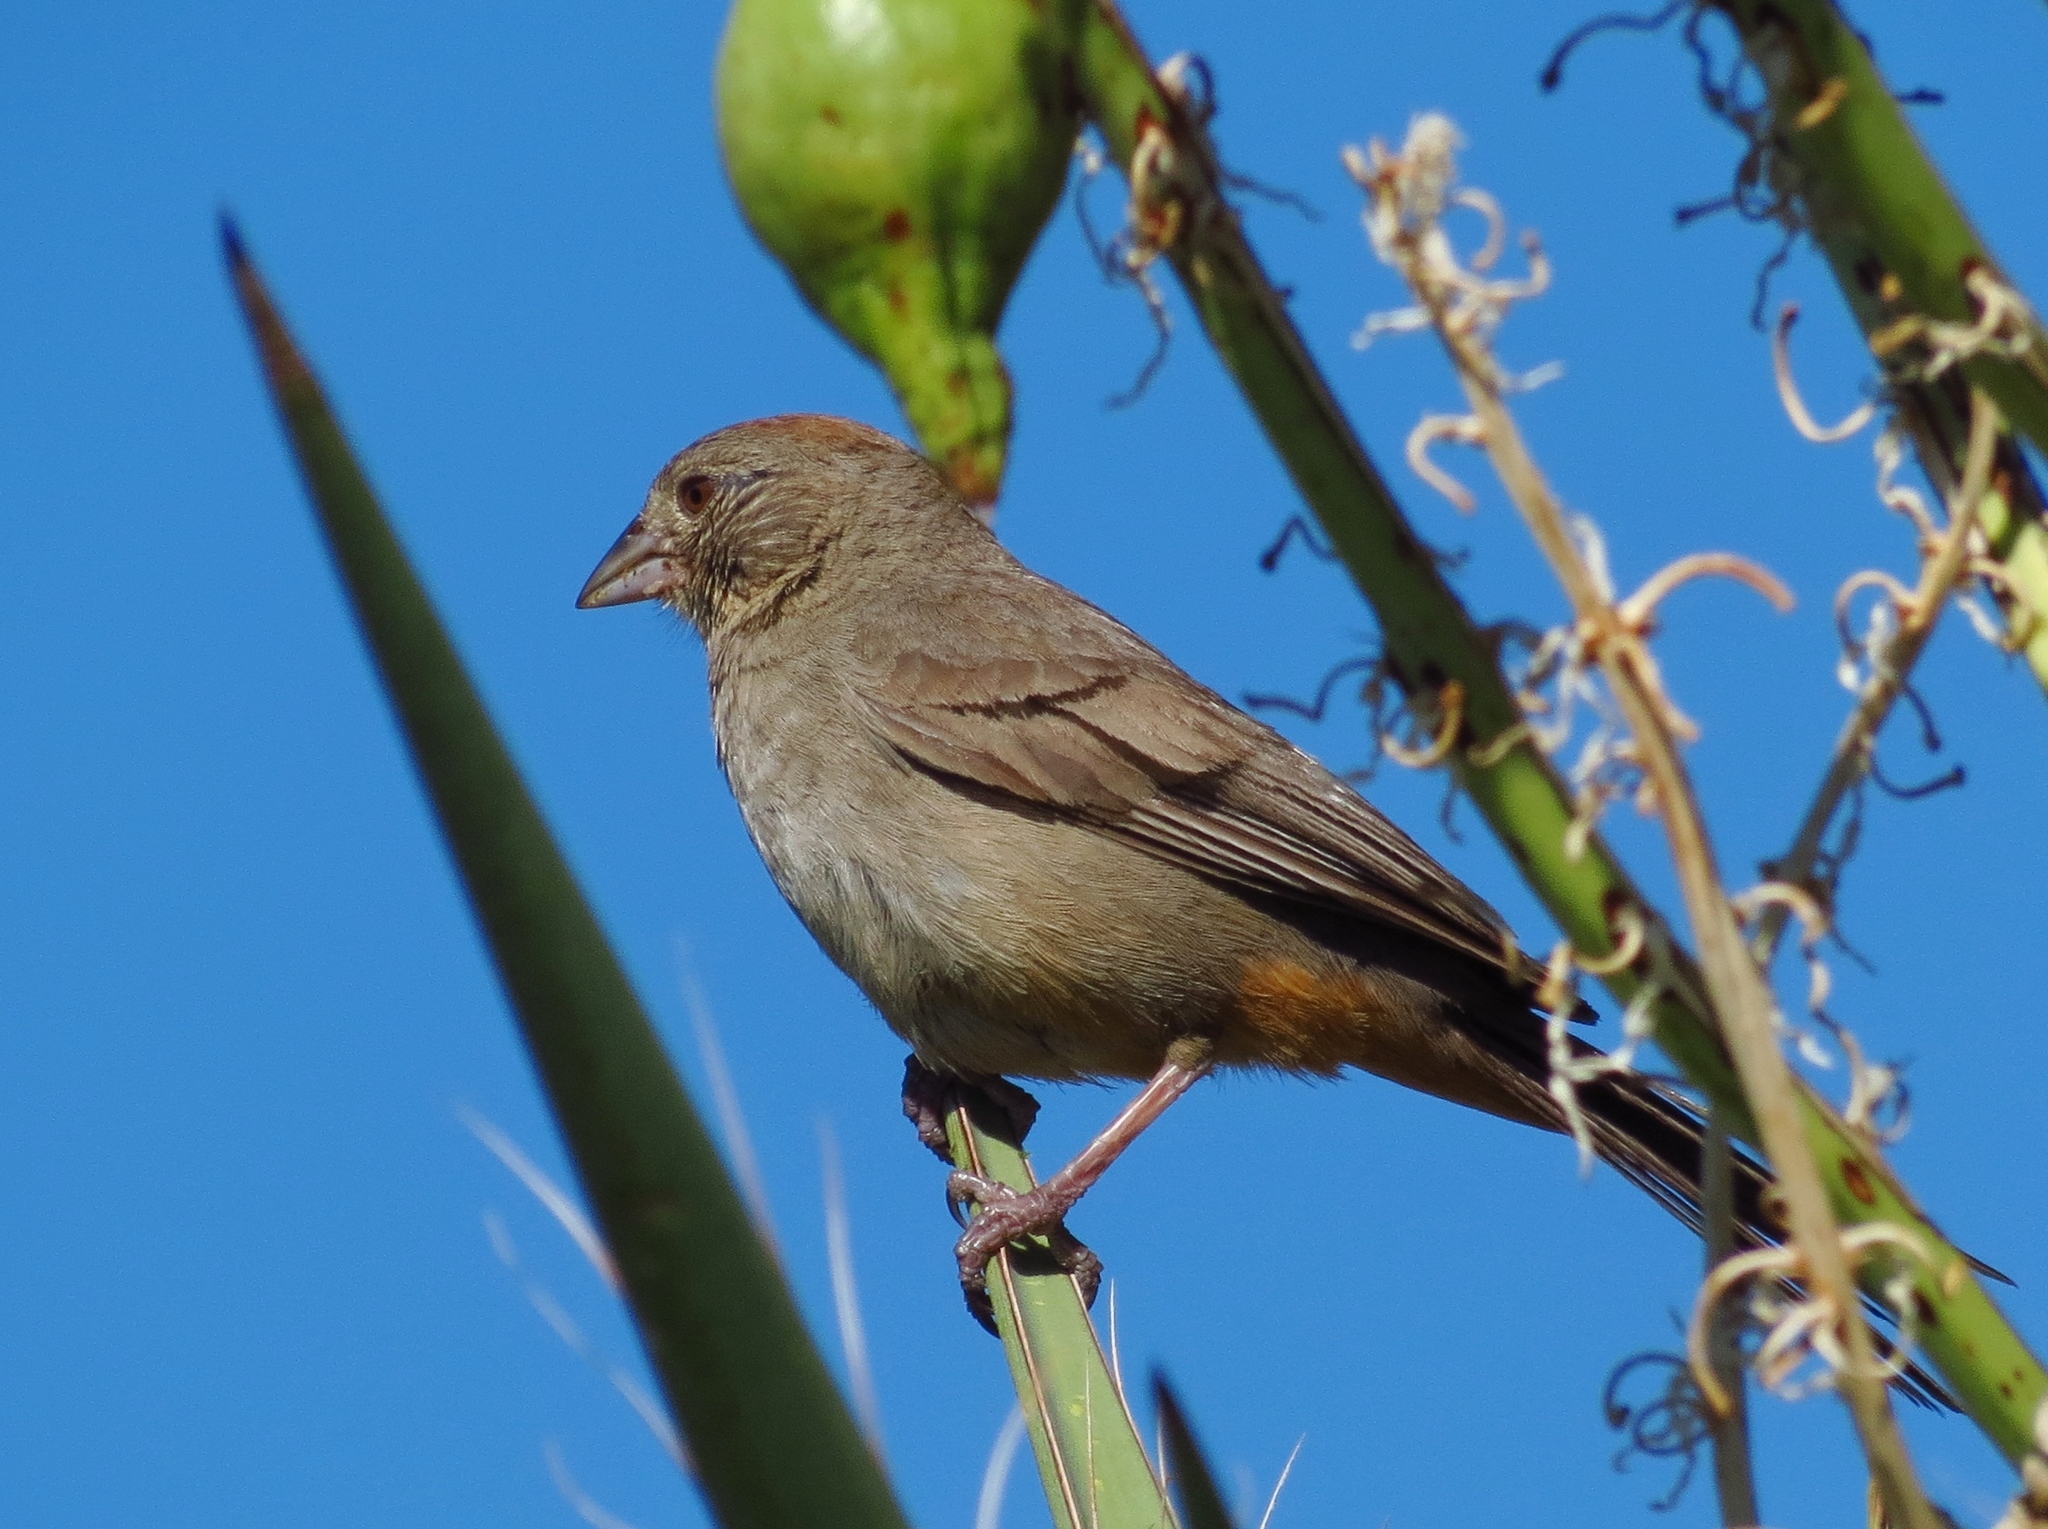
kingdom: Animalia
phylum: Chordata
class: Aves
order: Passeriformes
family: Passerellidae
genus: Melozone
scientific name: Melozone fusca
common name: Canyon towhee
